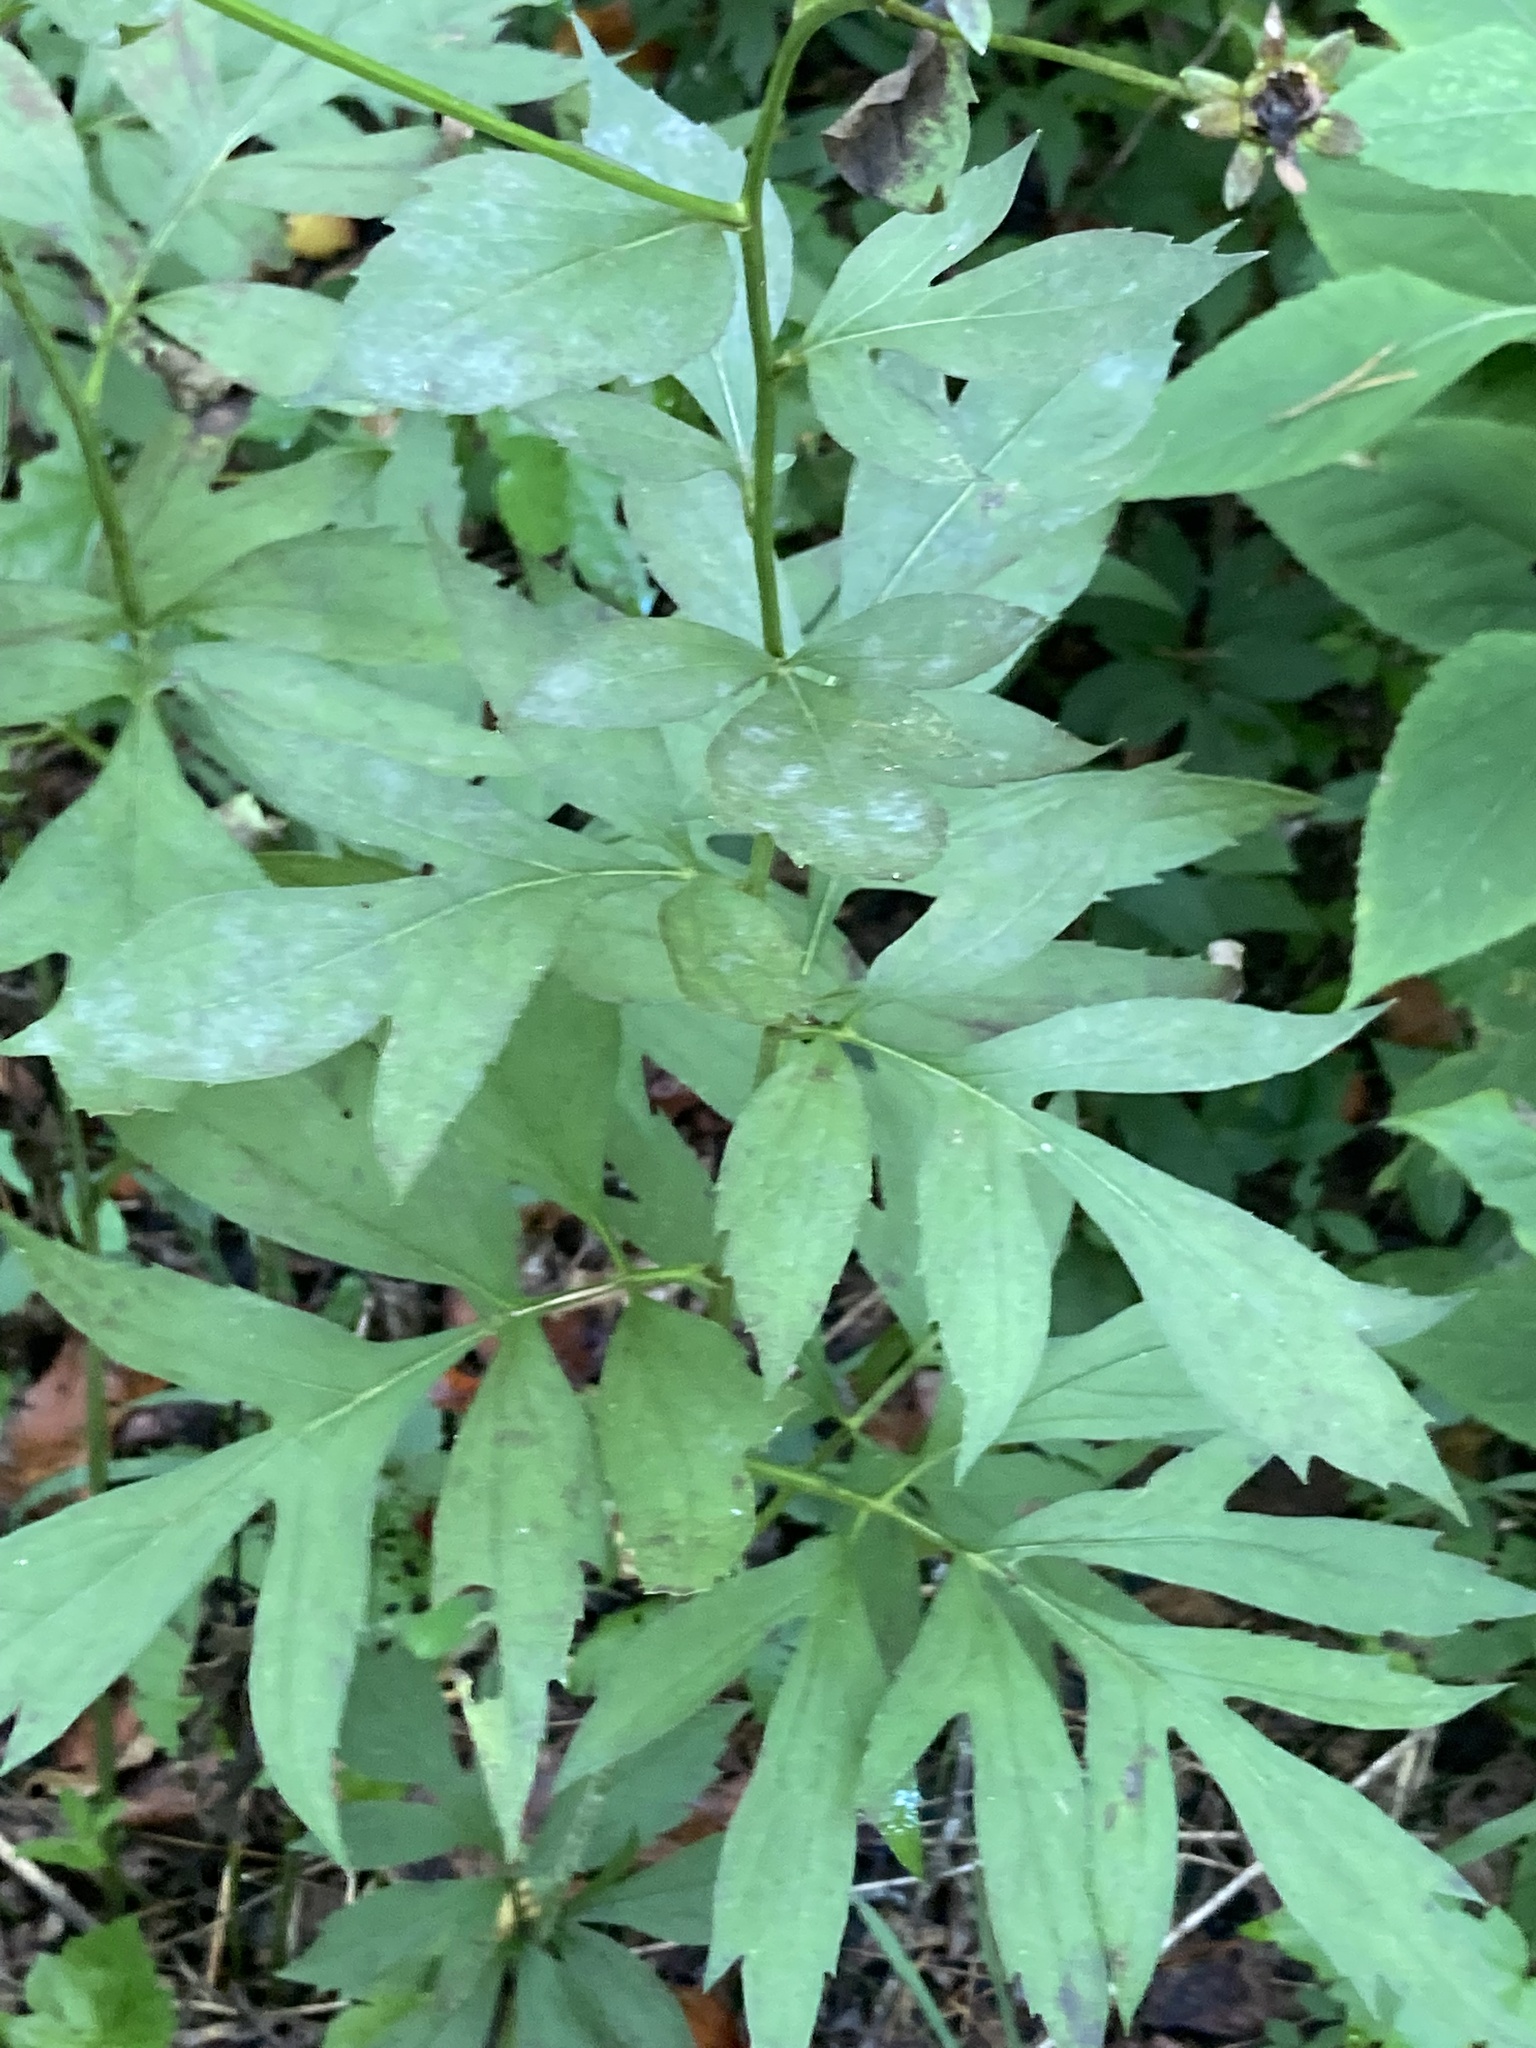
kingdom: Plantae
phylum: Tracheophyta
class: Magnoliopsida
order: Asterales
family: Asteraceae
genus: Rudbeckia
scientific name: Rudbeckia laciniata
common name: Coneflower
